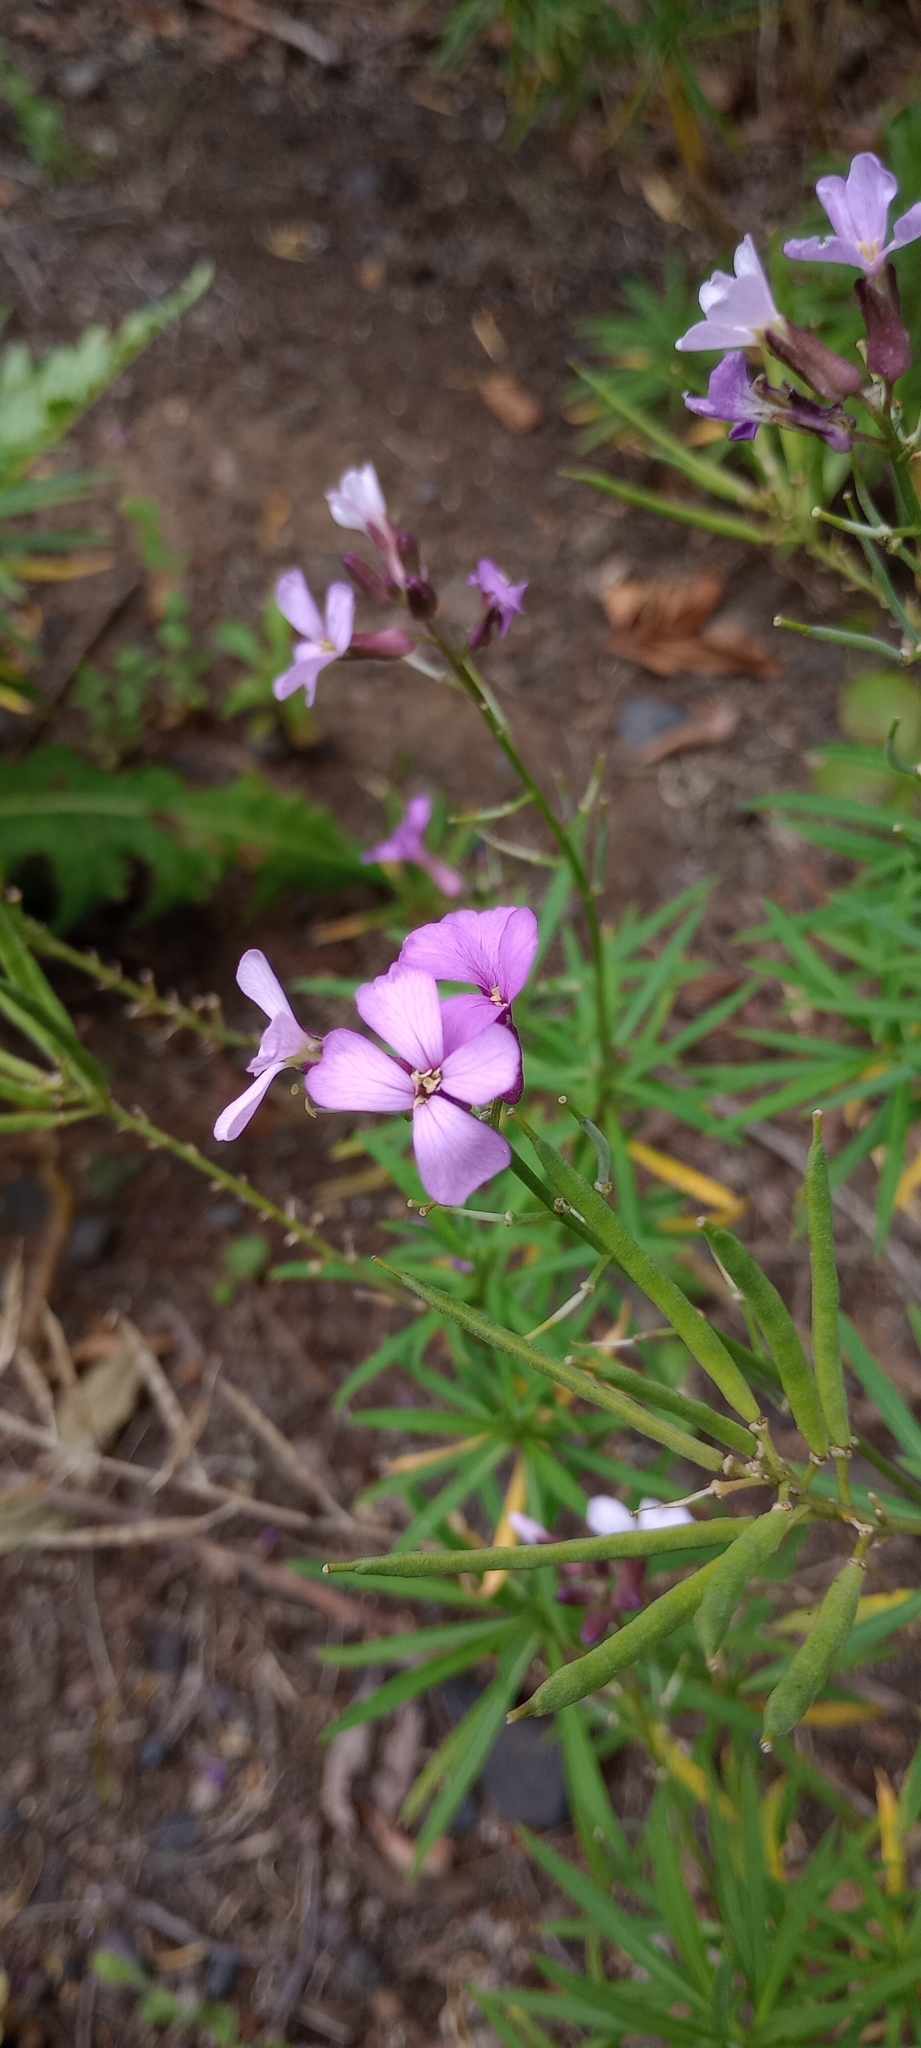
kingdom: Plantae
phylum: Tracheophyta
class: Magnoliopsida
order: Brassicales
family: Brassicaceae
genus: Erysimum
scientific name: Erysimum bicolor
